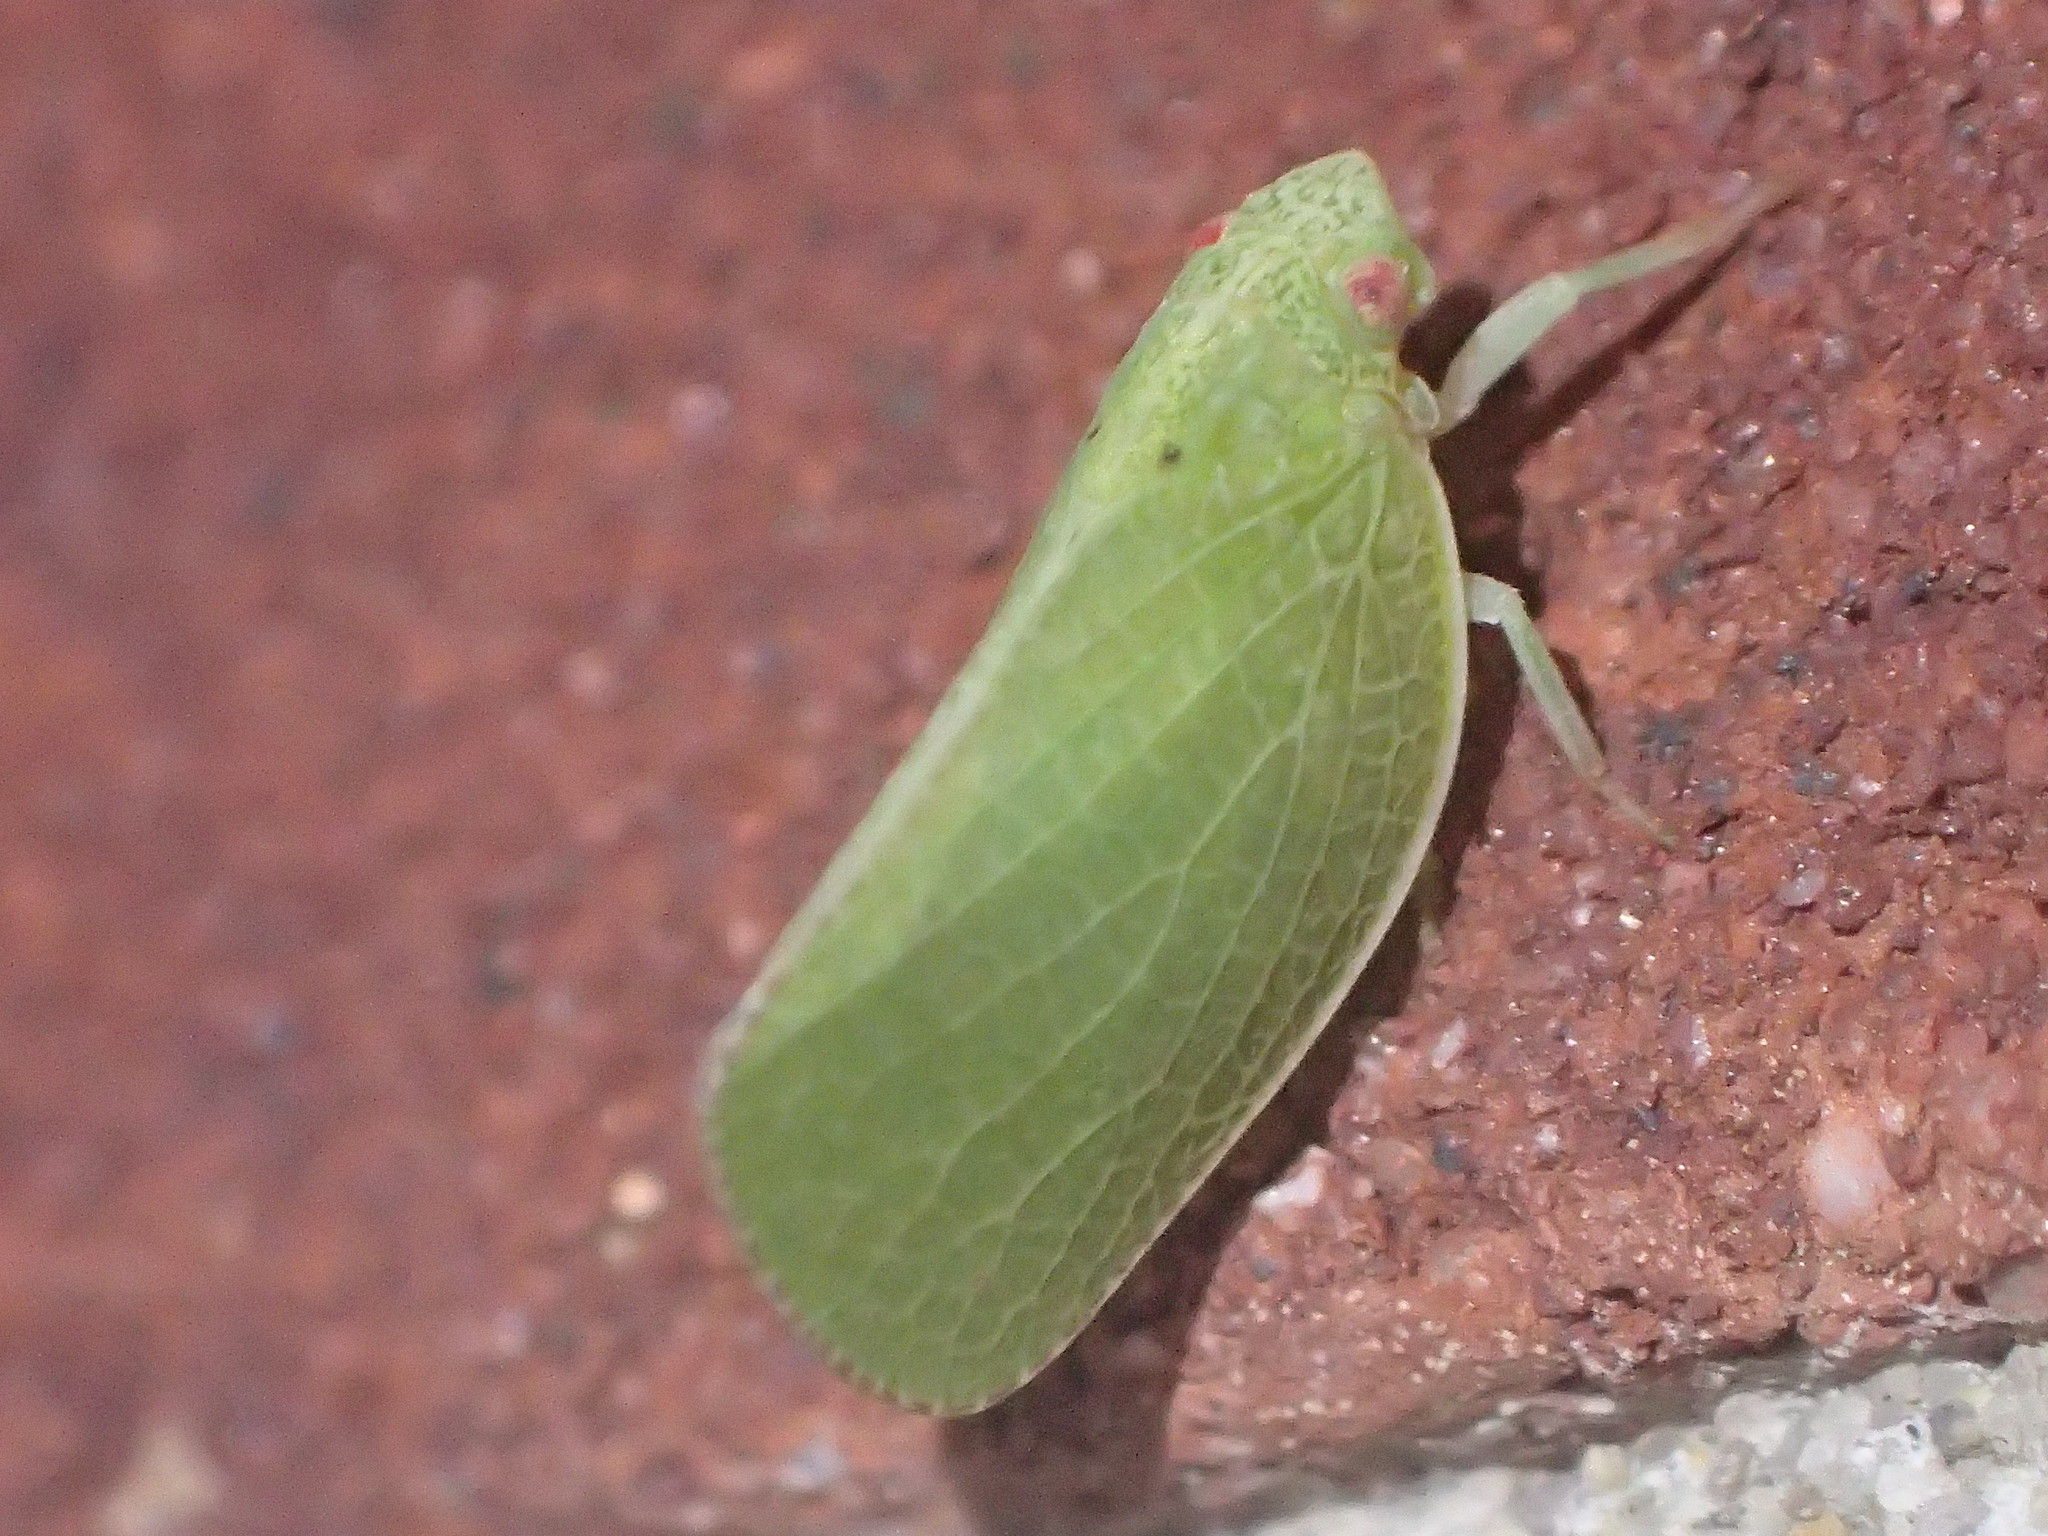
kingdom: Animalia
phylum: Arthropoda
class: Insecta
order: Hemiptera
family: Acanaloniidae
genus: Acanalonia
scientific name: Acanalonia conica
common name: Green cone-headed planthopper
